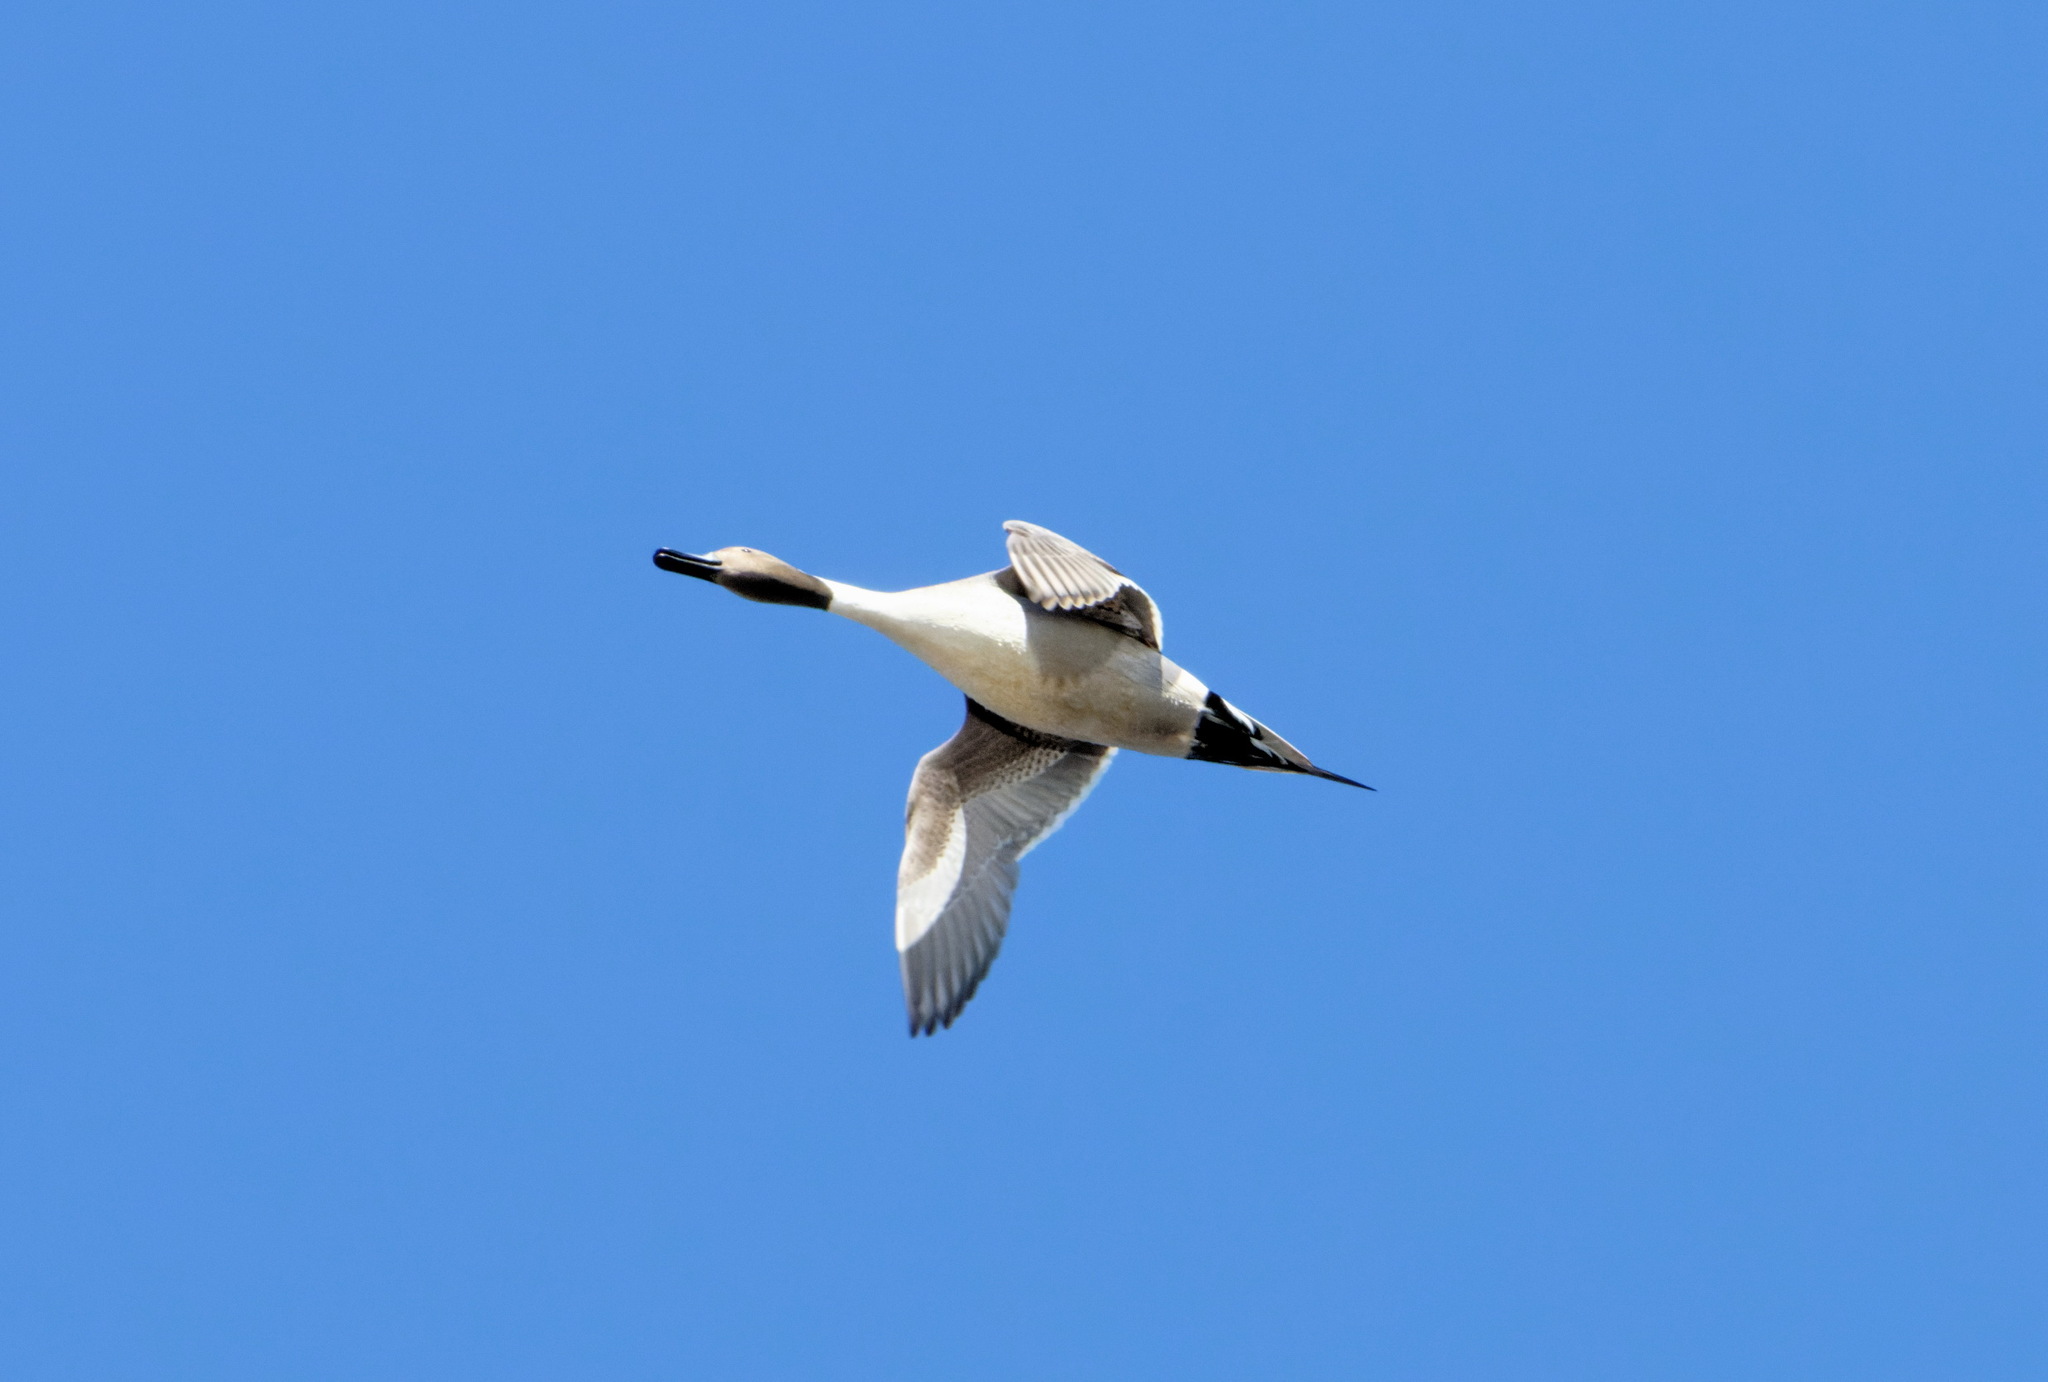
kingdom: Animalia
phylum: Chordata
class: Aves
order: Anseriformes
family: Anatidae
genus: Anas
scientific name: Anas acuta
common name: Northern pintail
